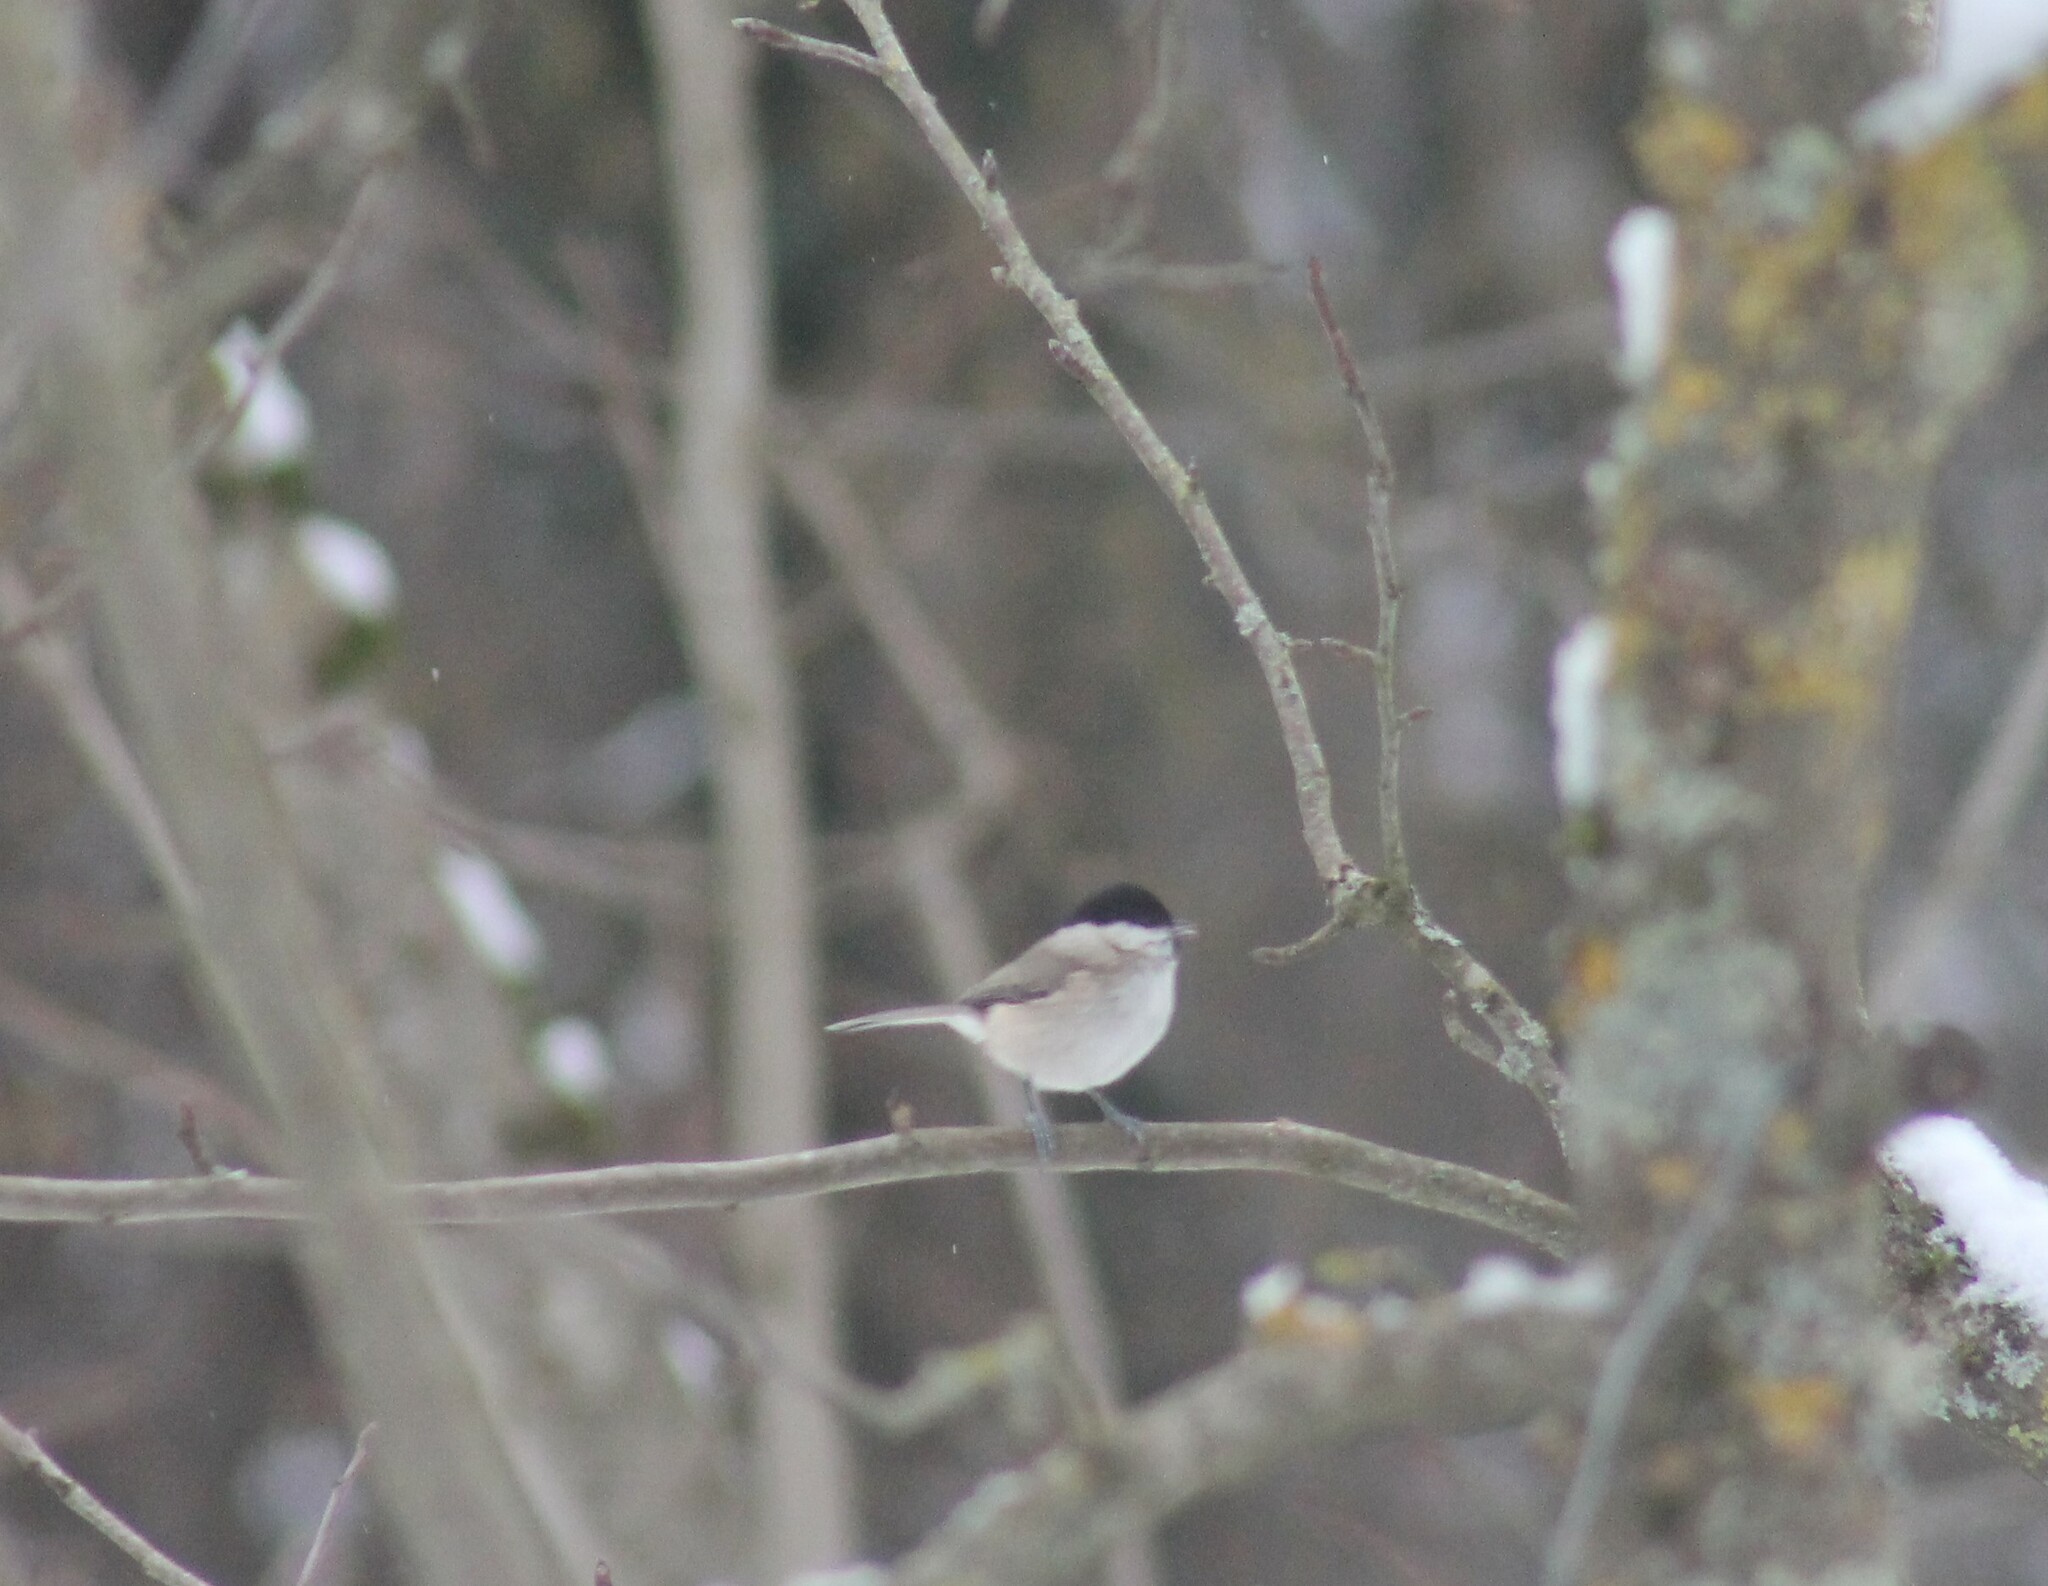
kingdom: Animalia
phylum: Chordata
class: Aves
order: Passeriformes
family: Paridae
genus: Poecile
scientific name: Poecile palustris
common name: Marsh tit
